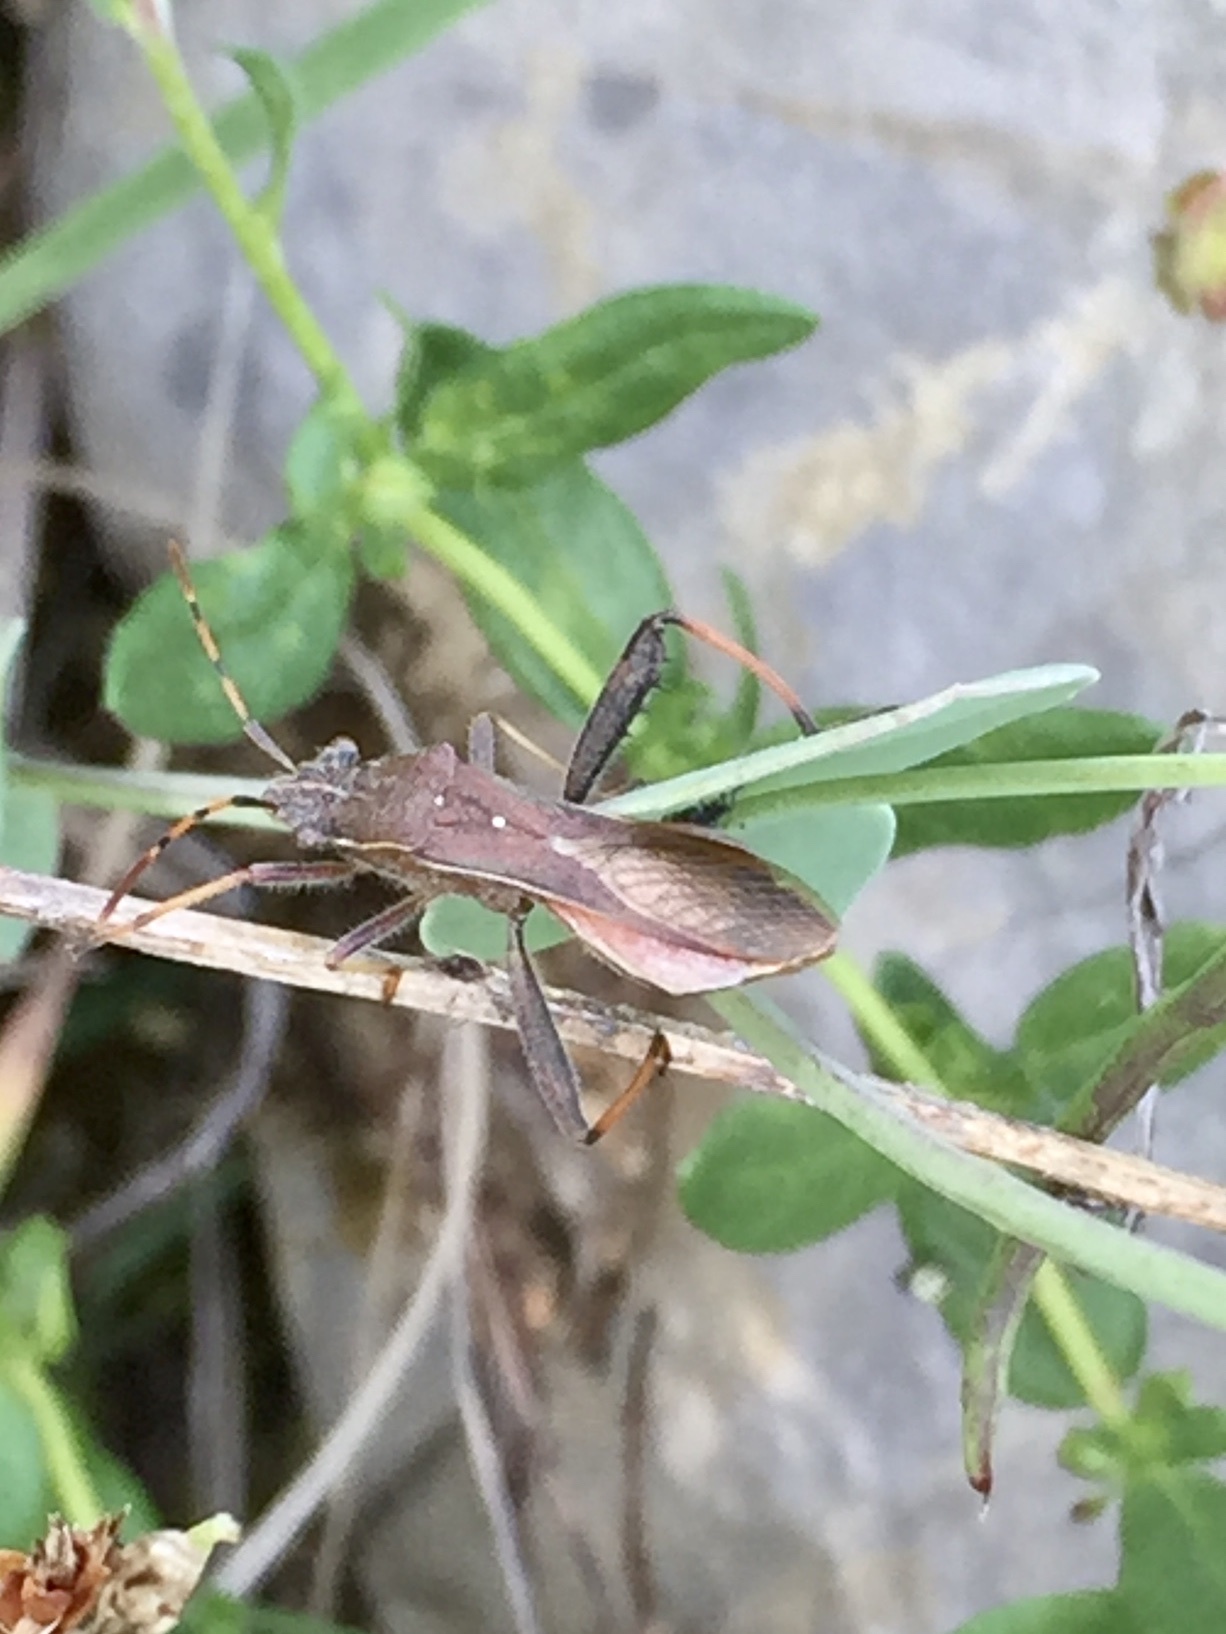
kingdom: Animalia
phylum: Arthropoda
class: Insecta
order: Hemiptera
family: Alydidae
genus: Camptopus
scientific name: Camptopus lateralis
